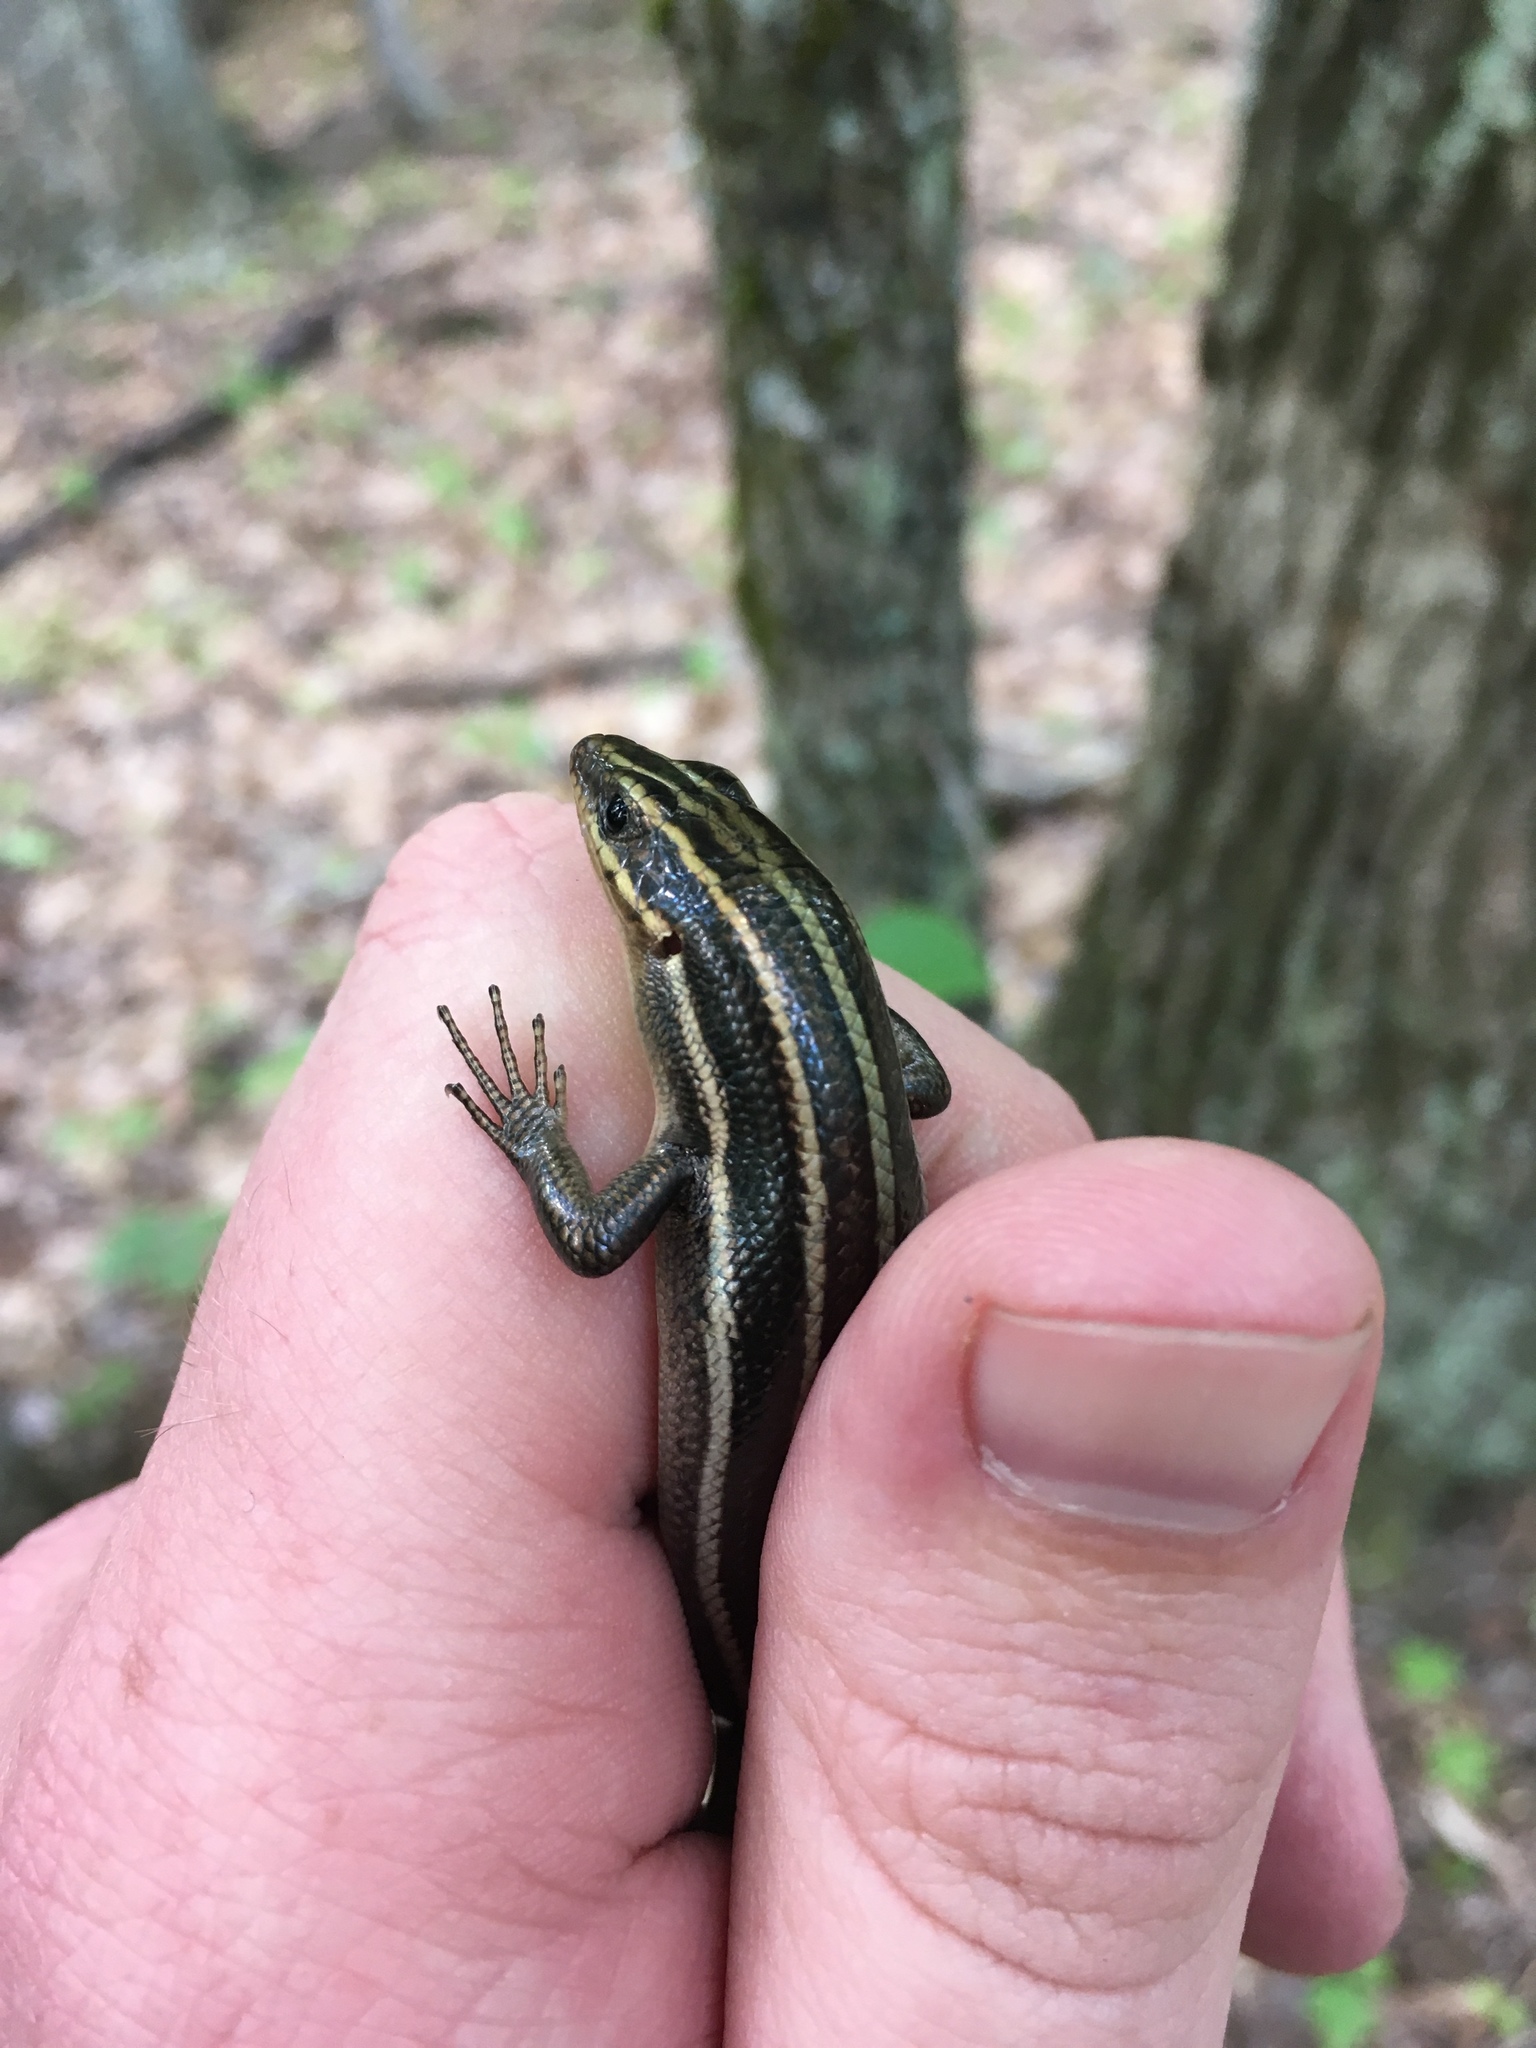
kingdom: Animalia
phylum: Chordata
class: Squamata
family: Scincidae
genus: Plestiodon
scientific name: Plestiodon fasciatus
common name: Five-lined skink
